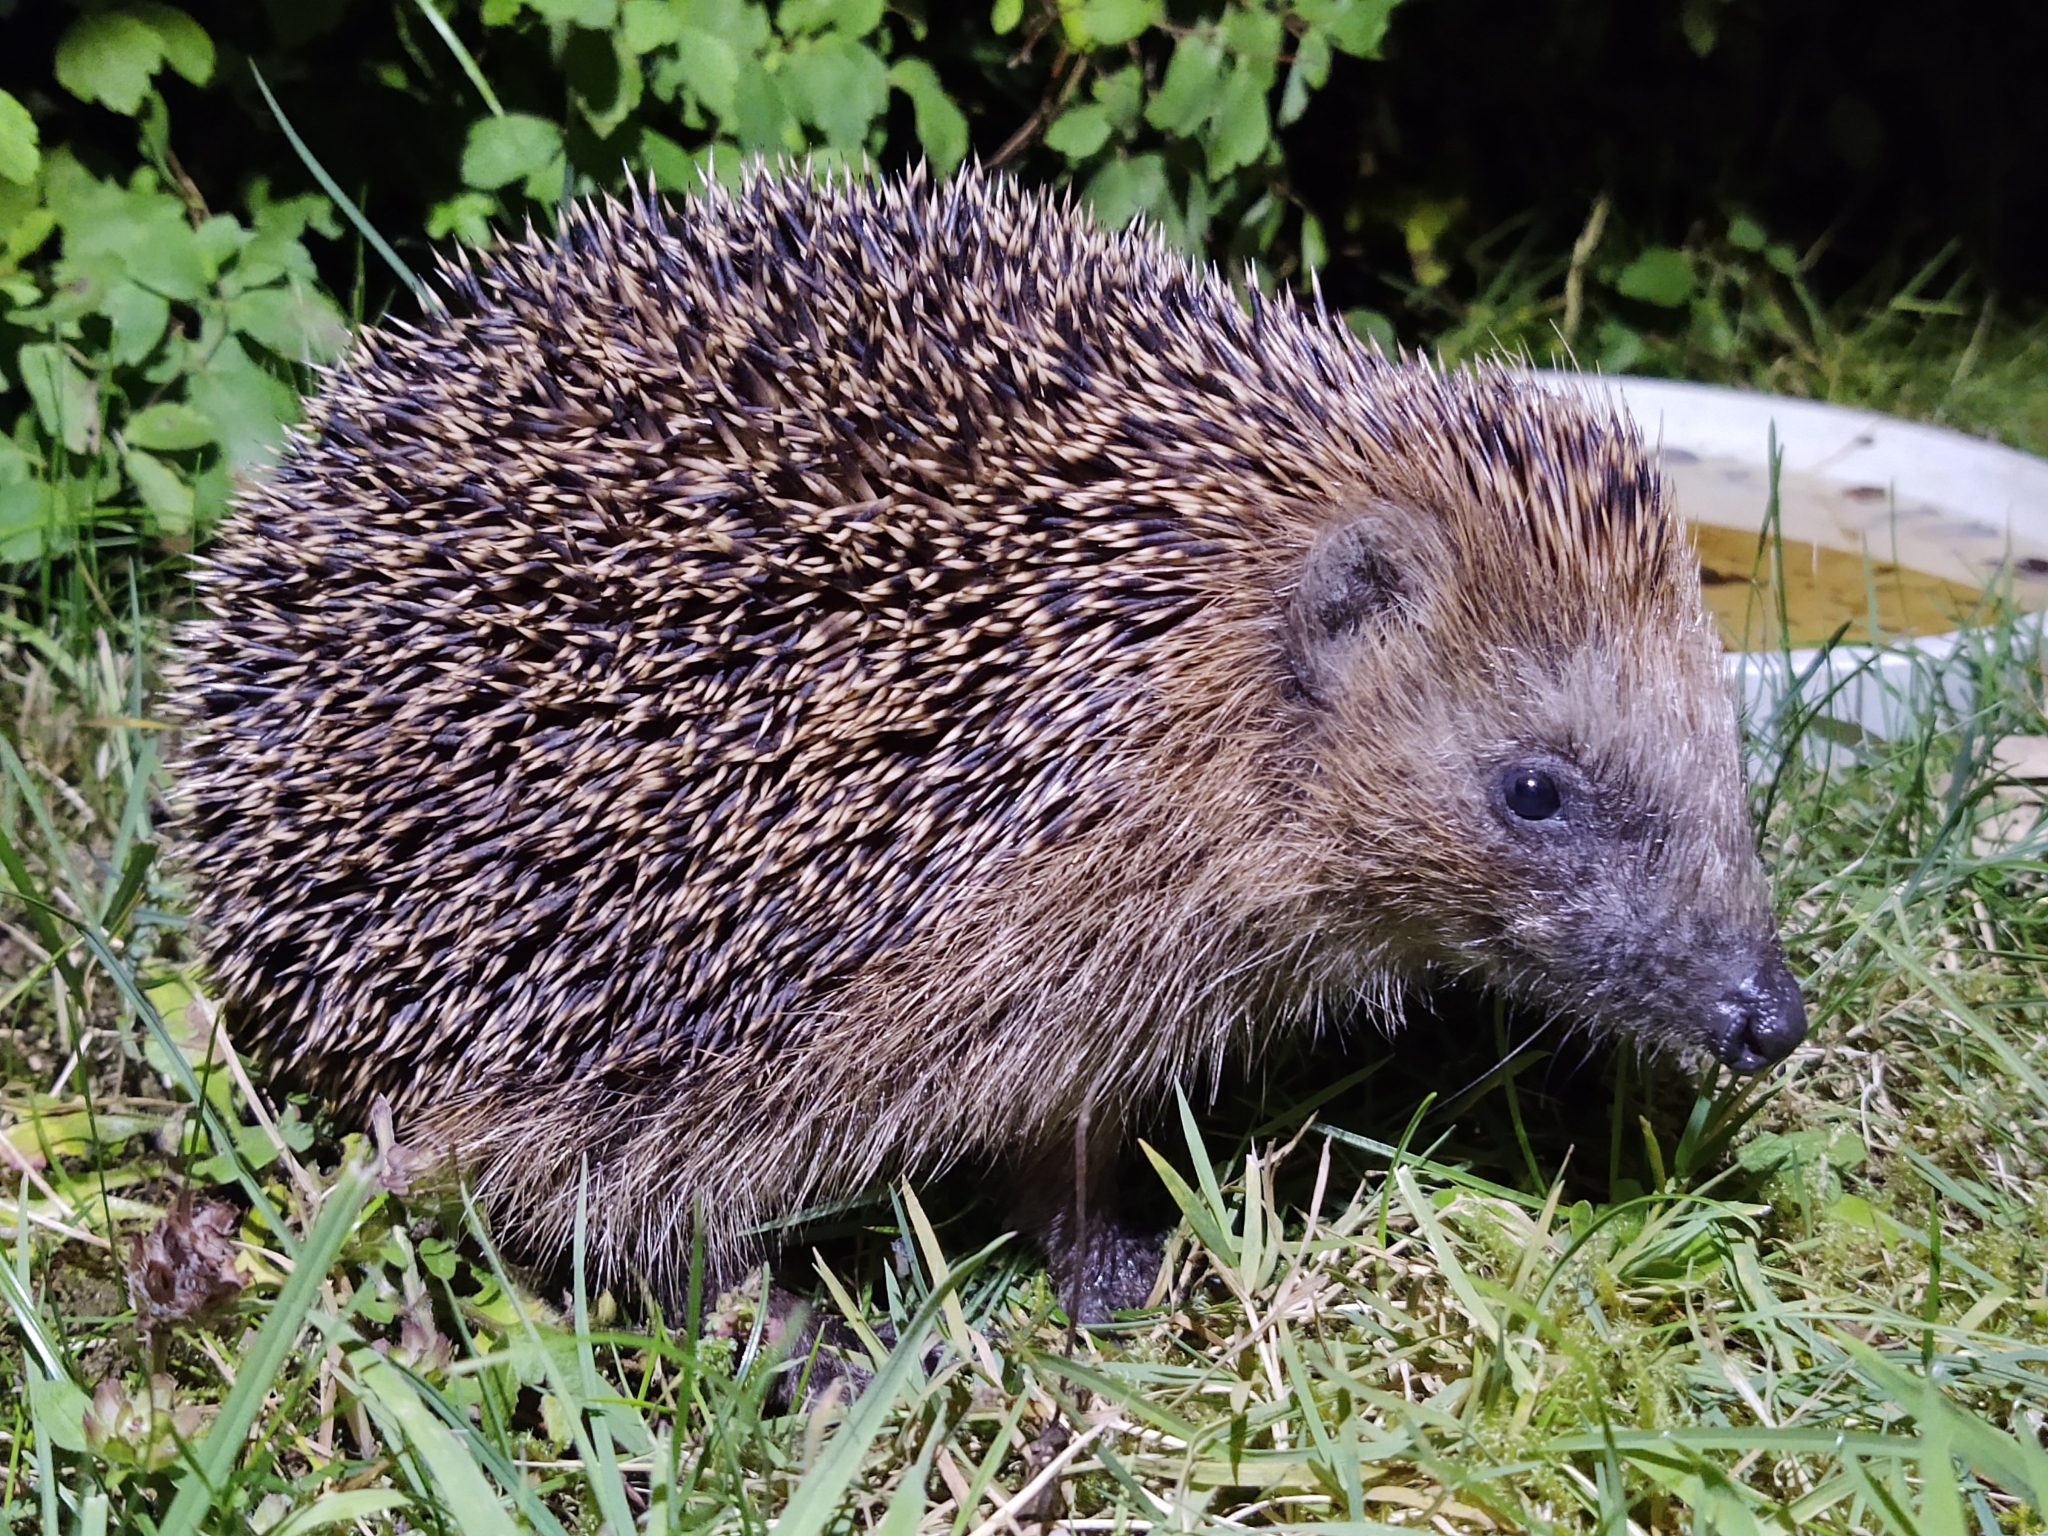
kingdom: Animalia
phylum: Chordata
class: Mammalia
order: Erinaceomorpha
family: Erinaceidae
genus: Erinaceus
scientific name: Erinaceus europaeus
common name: West european hedgehog
